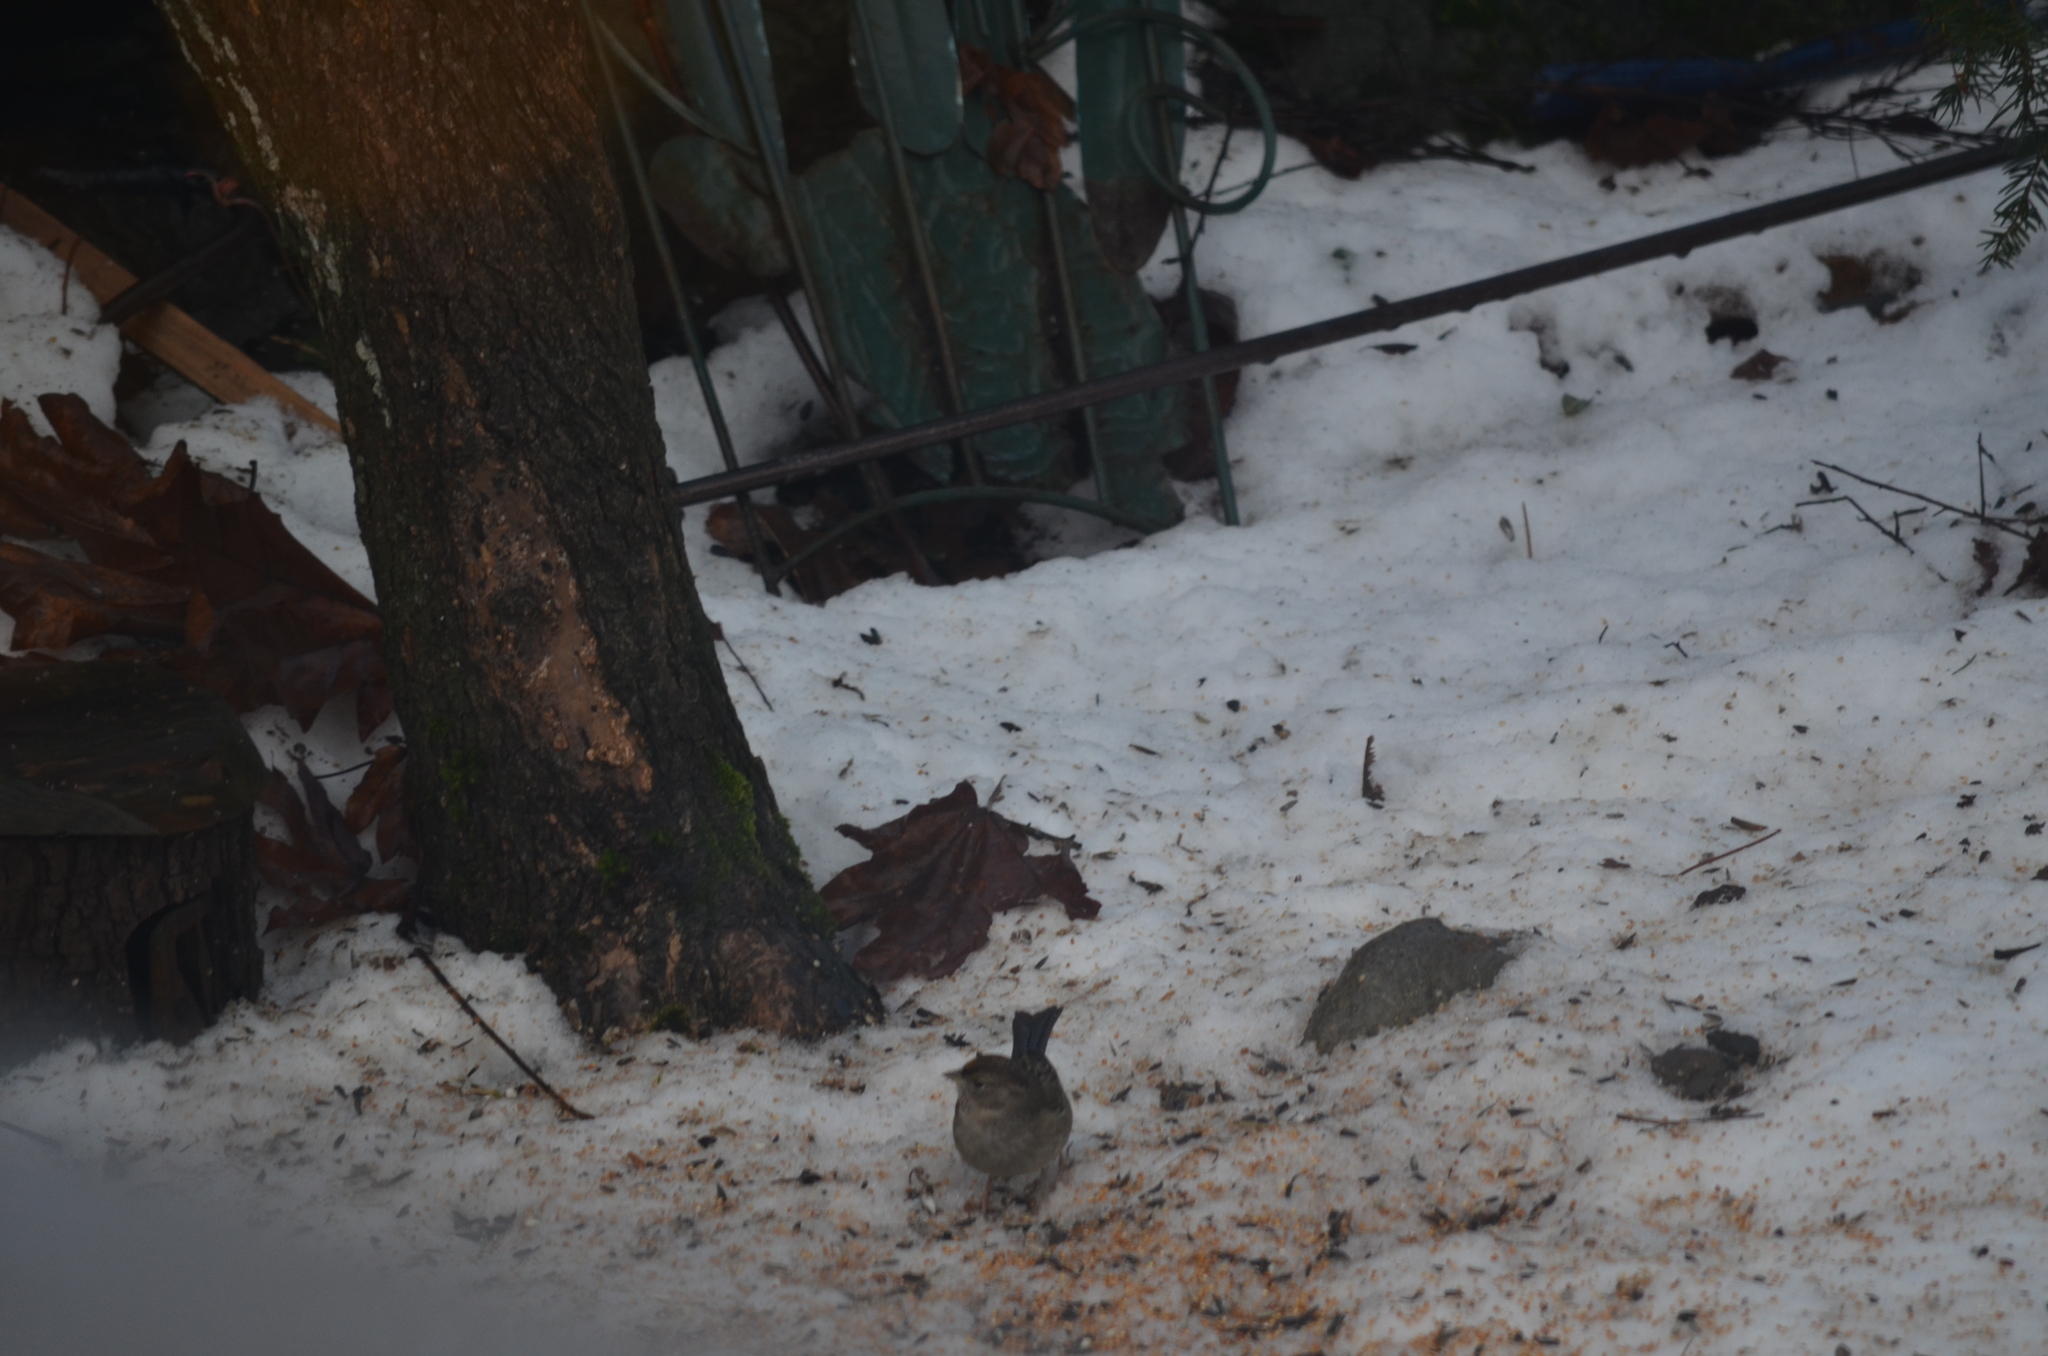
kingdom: Animalia
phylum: Chordata
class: Aves
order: Passeriformes
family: Passerellidae
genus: Zonotrichia
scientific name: Zonotrichia atricapilla
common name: Golden-crowned sparrow
